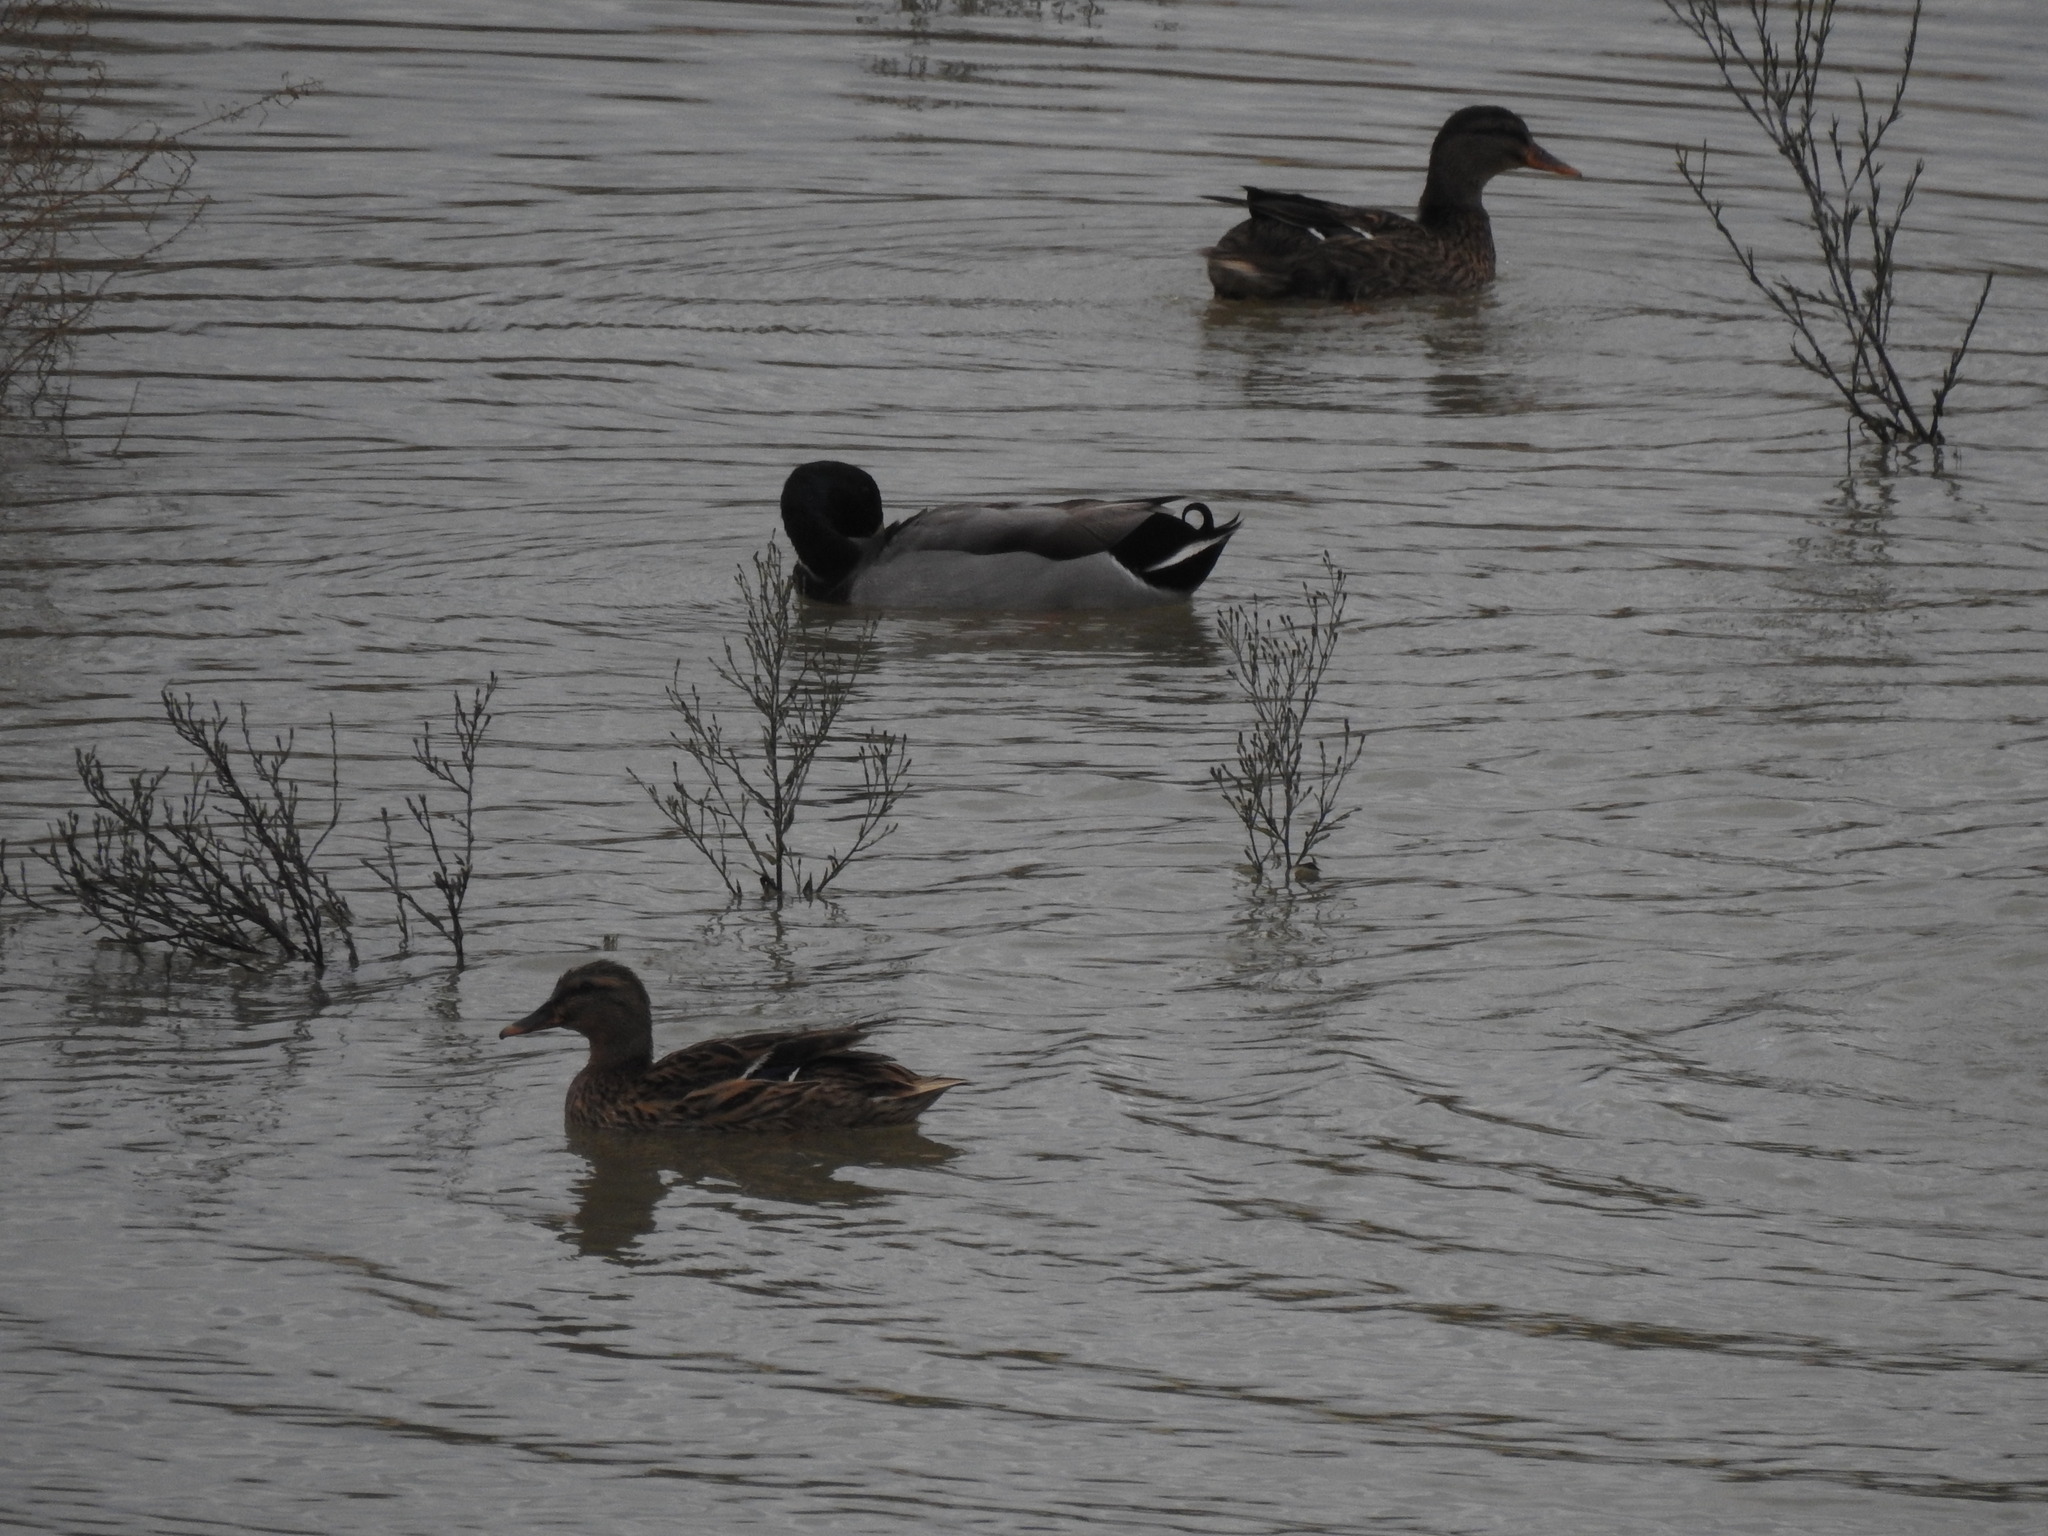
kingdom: Animalia
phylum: Chordata
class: Aves
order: Anseriformes
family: Anatidae
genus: Anas
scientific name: Anas platyrhynchos
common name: Mallard
